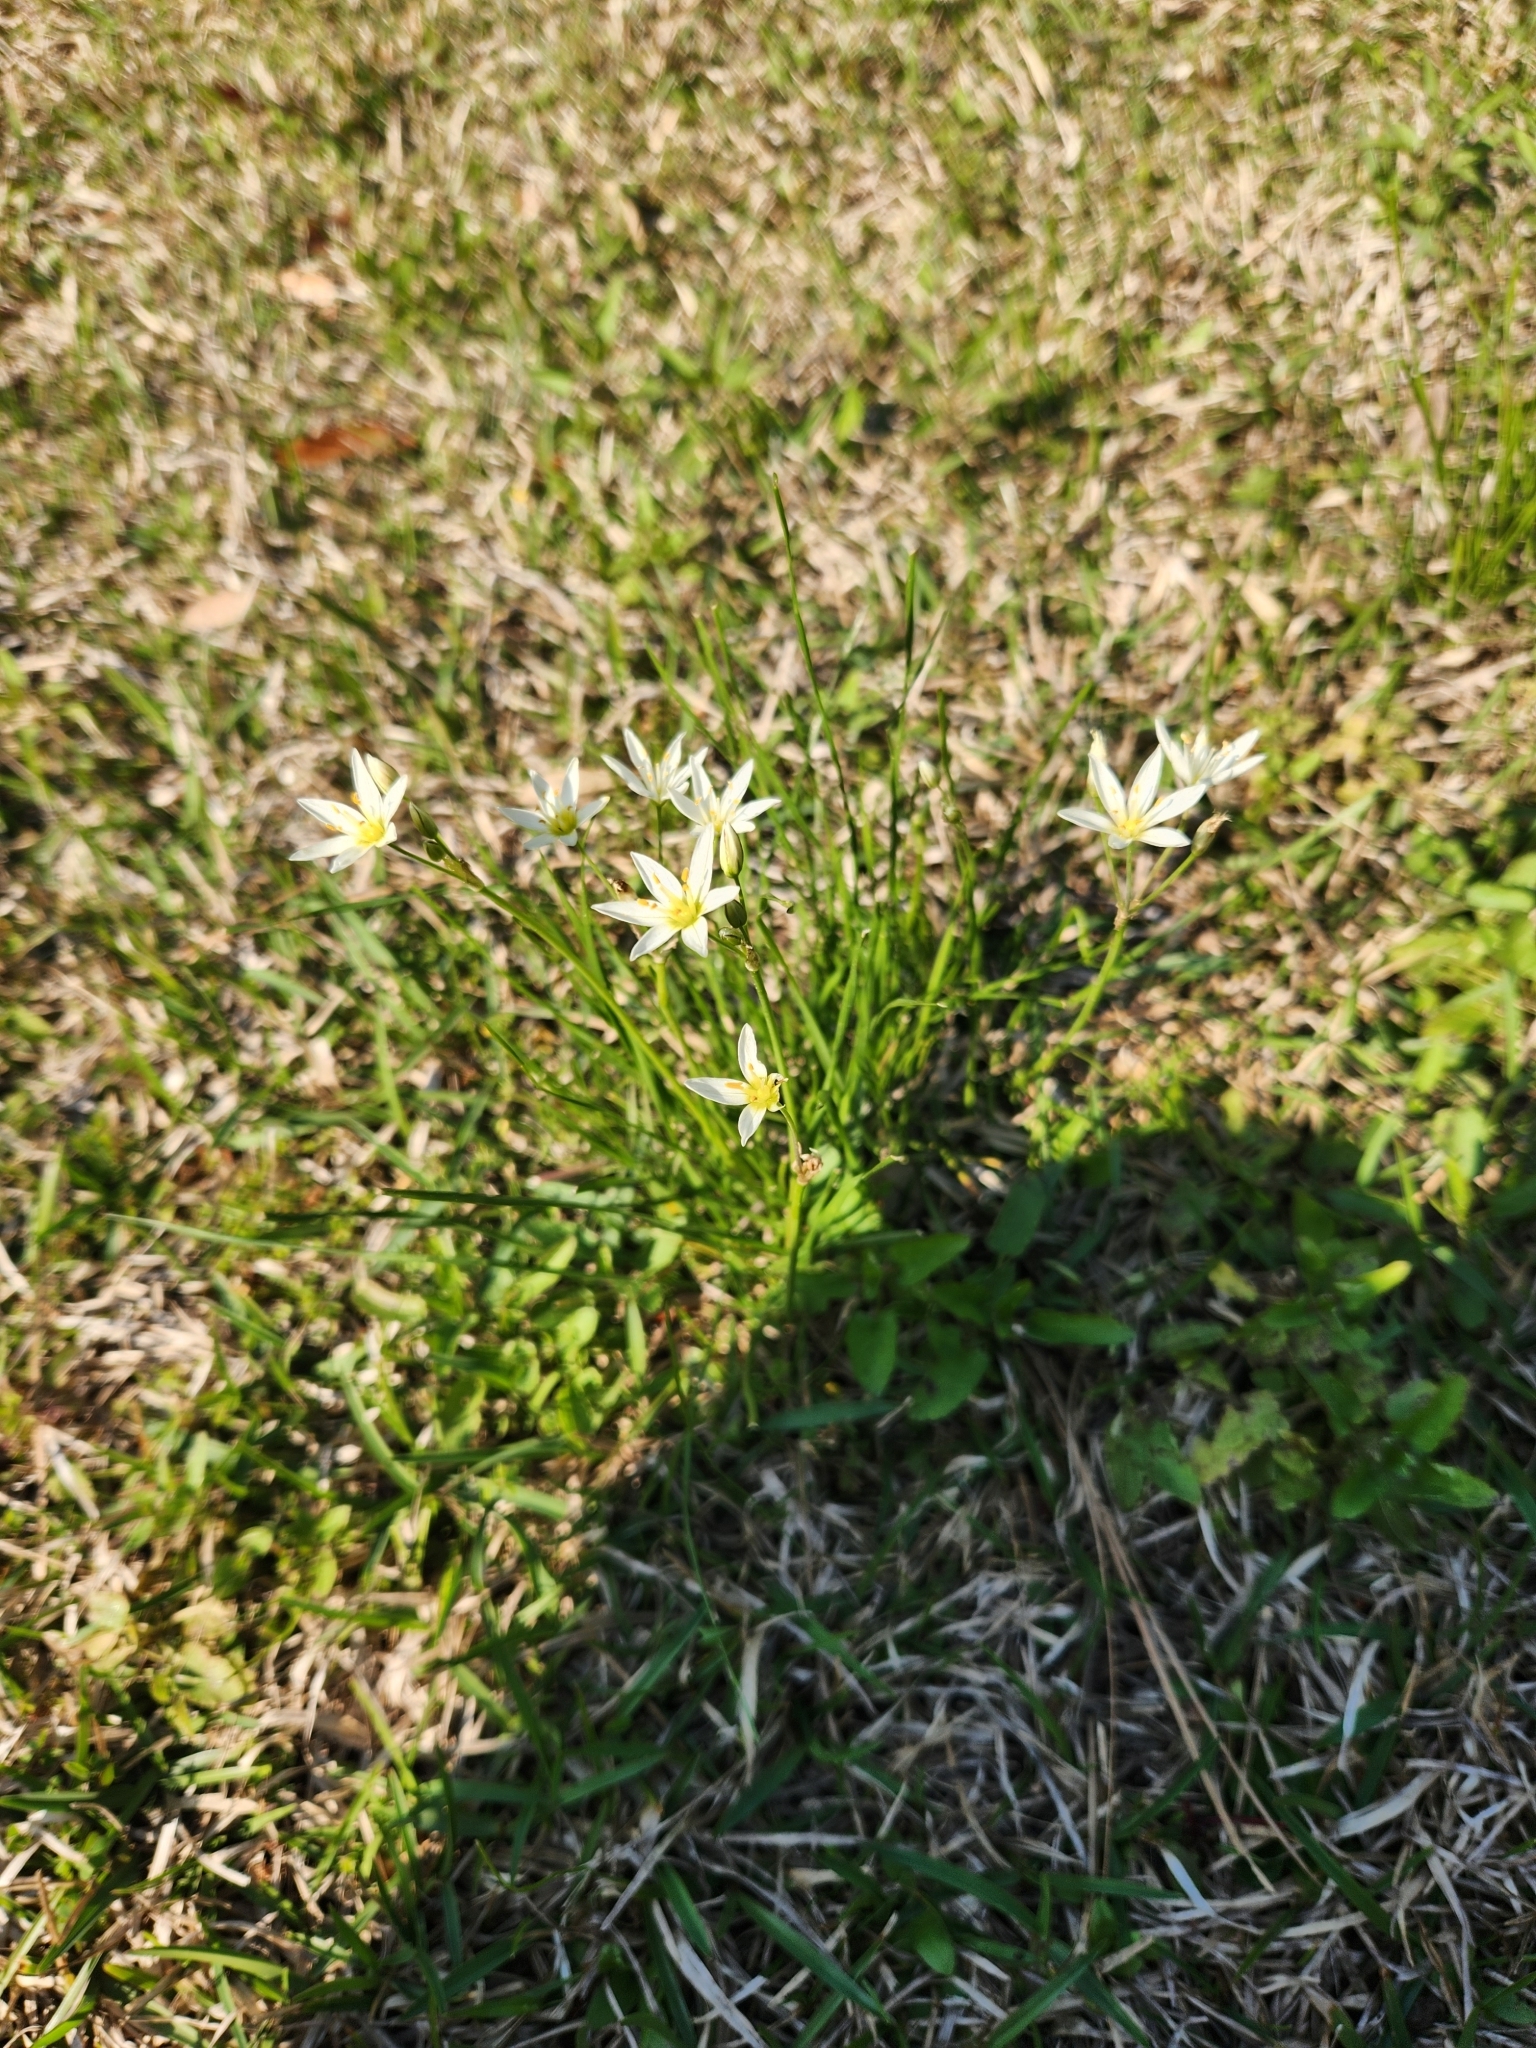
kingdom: Plantae
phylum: Tracheophyta
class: Liliopsida
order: Asparagales
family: Amaryllidaceae
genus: Nothoscordum
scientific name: Nothoscordum bivalve
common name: Crow-poison
